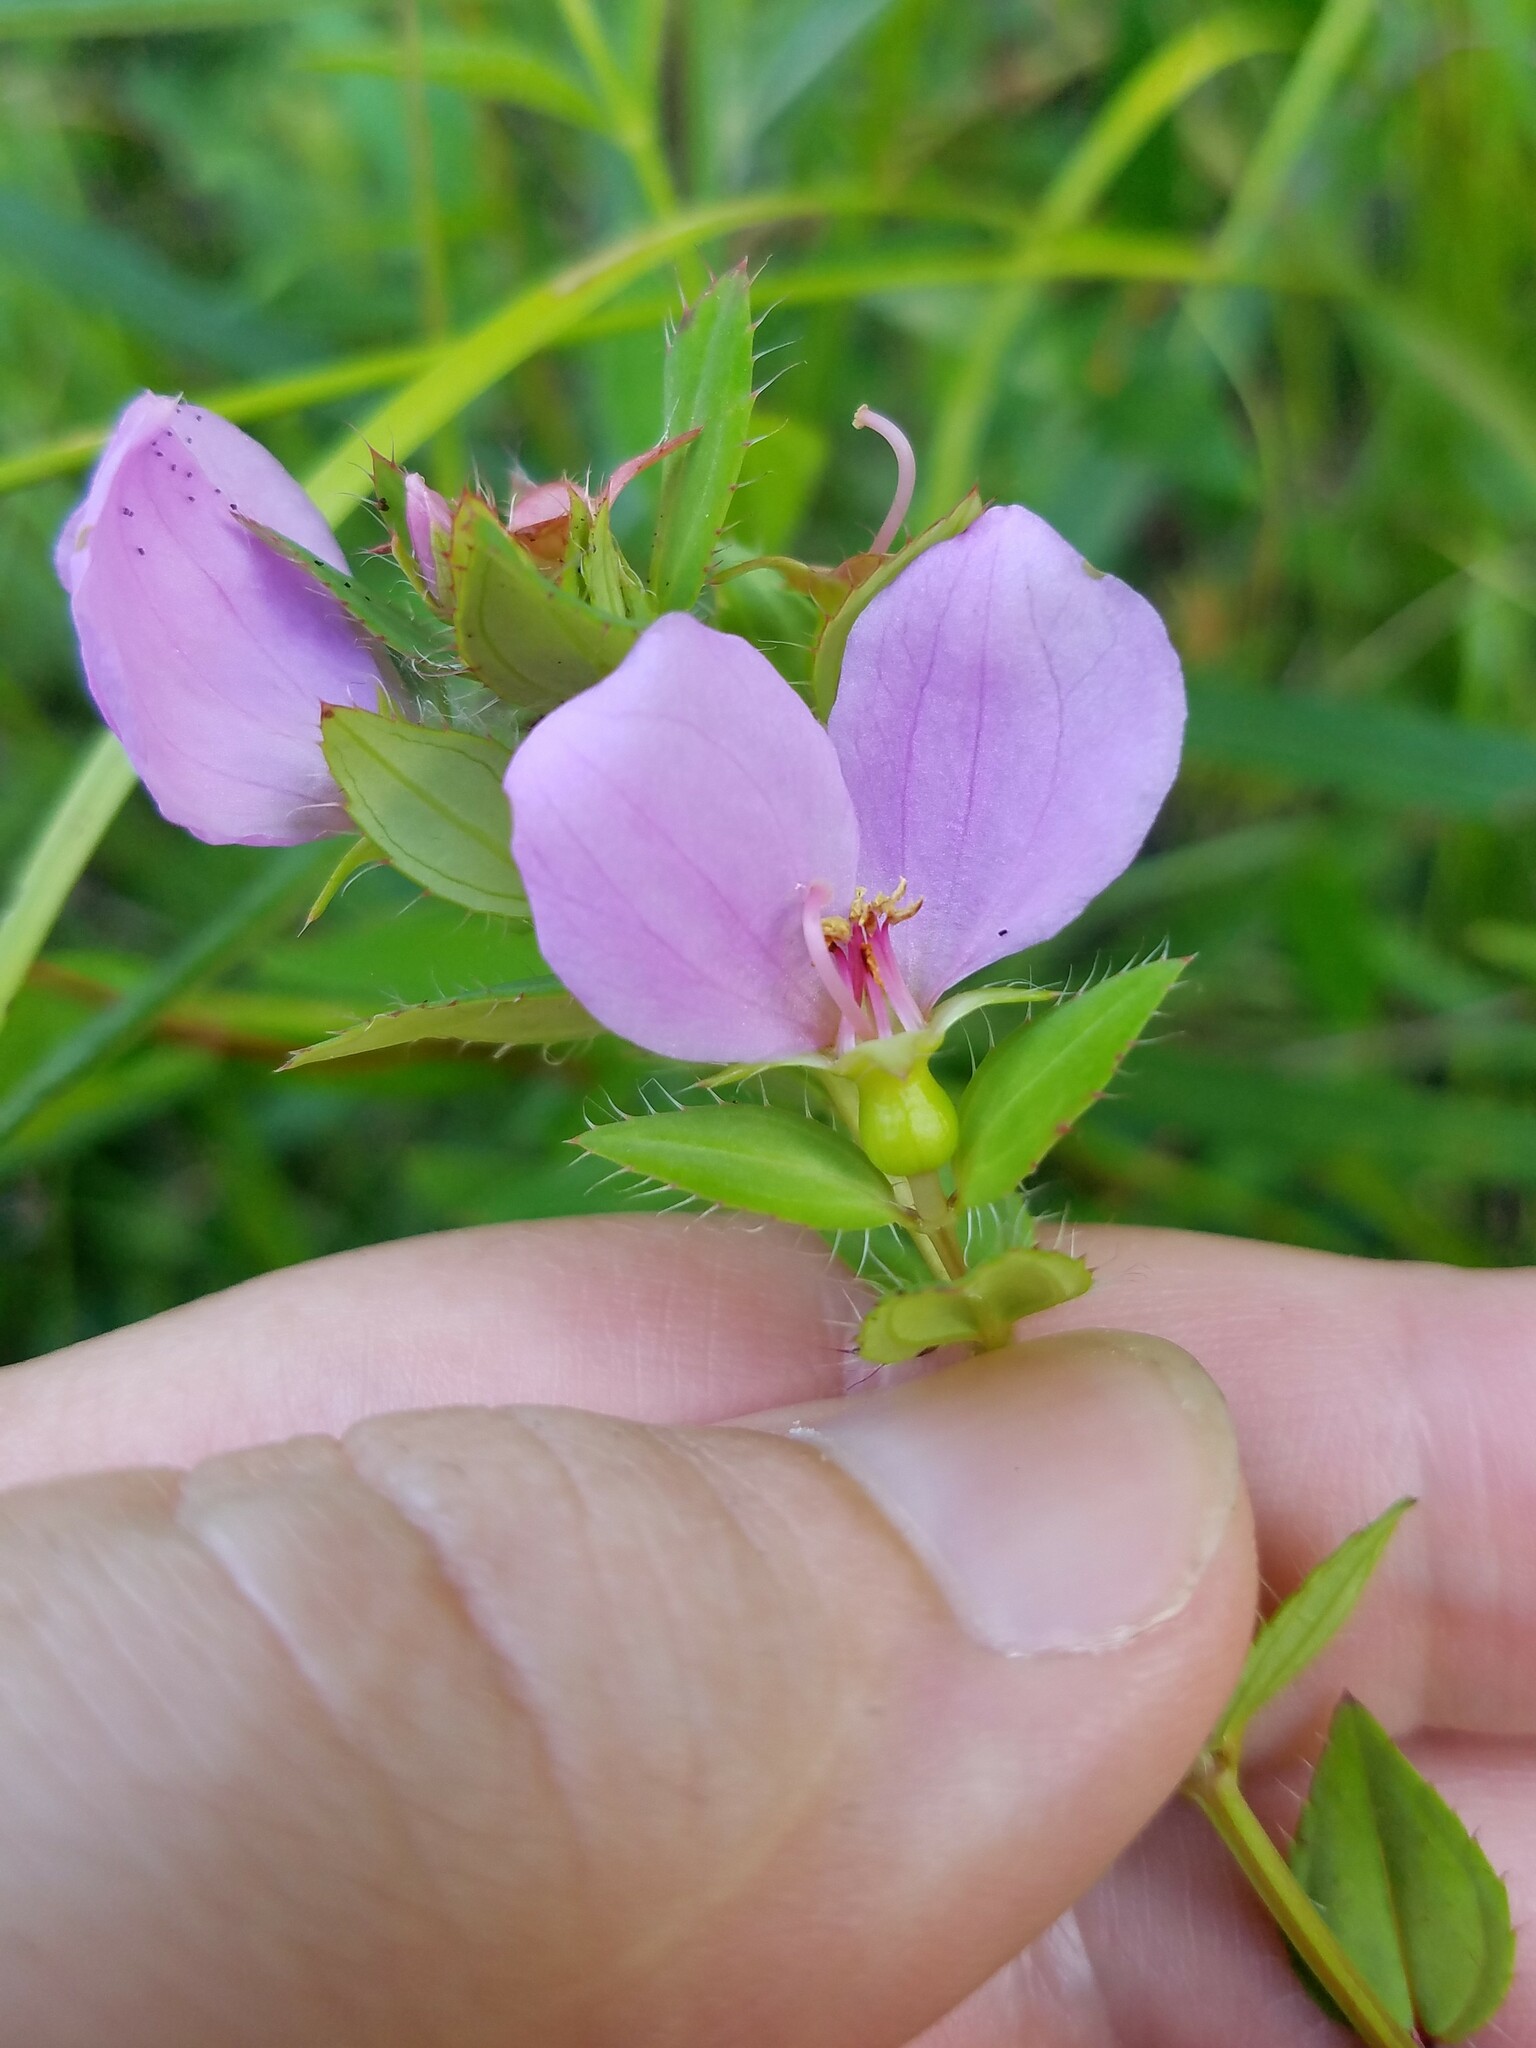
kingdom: Plantae
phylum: Tracheophyta
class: Magnoliopsida
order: Myrtales
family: Melastomataceae
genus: Rhexia
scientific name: Rhexia petiolata
